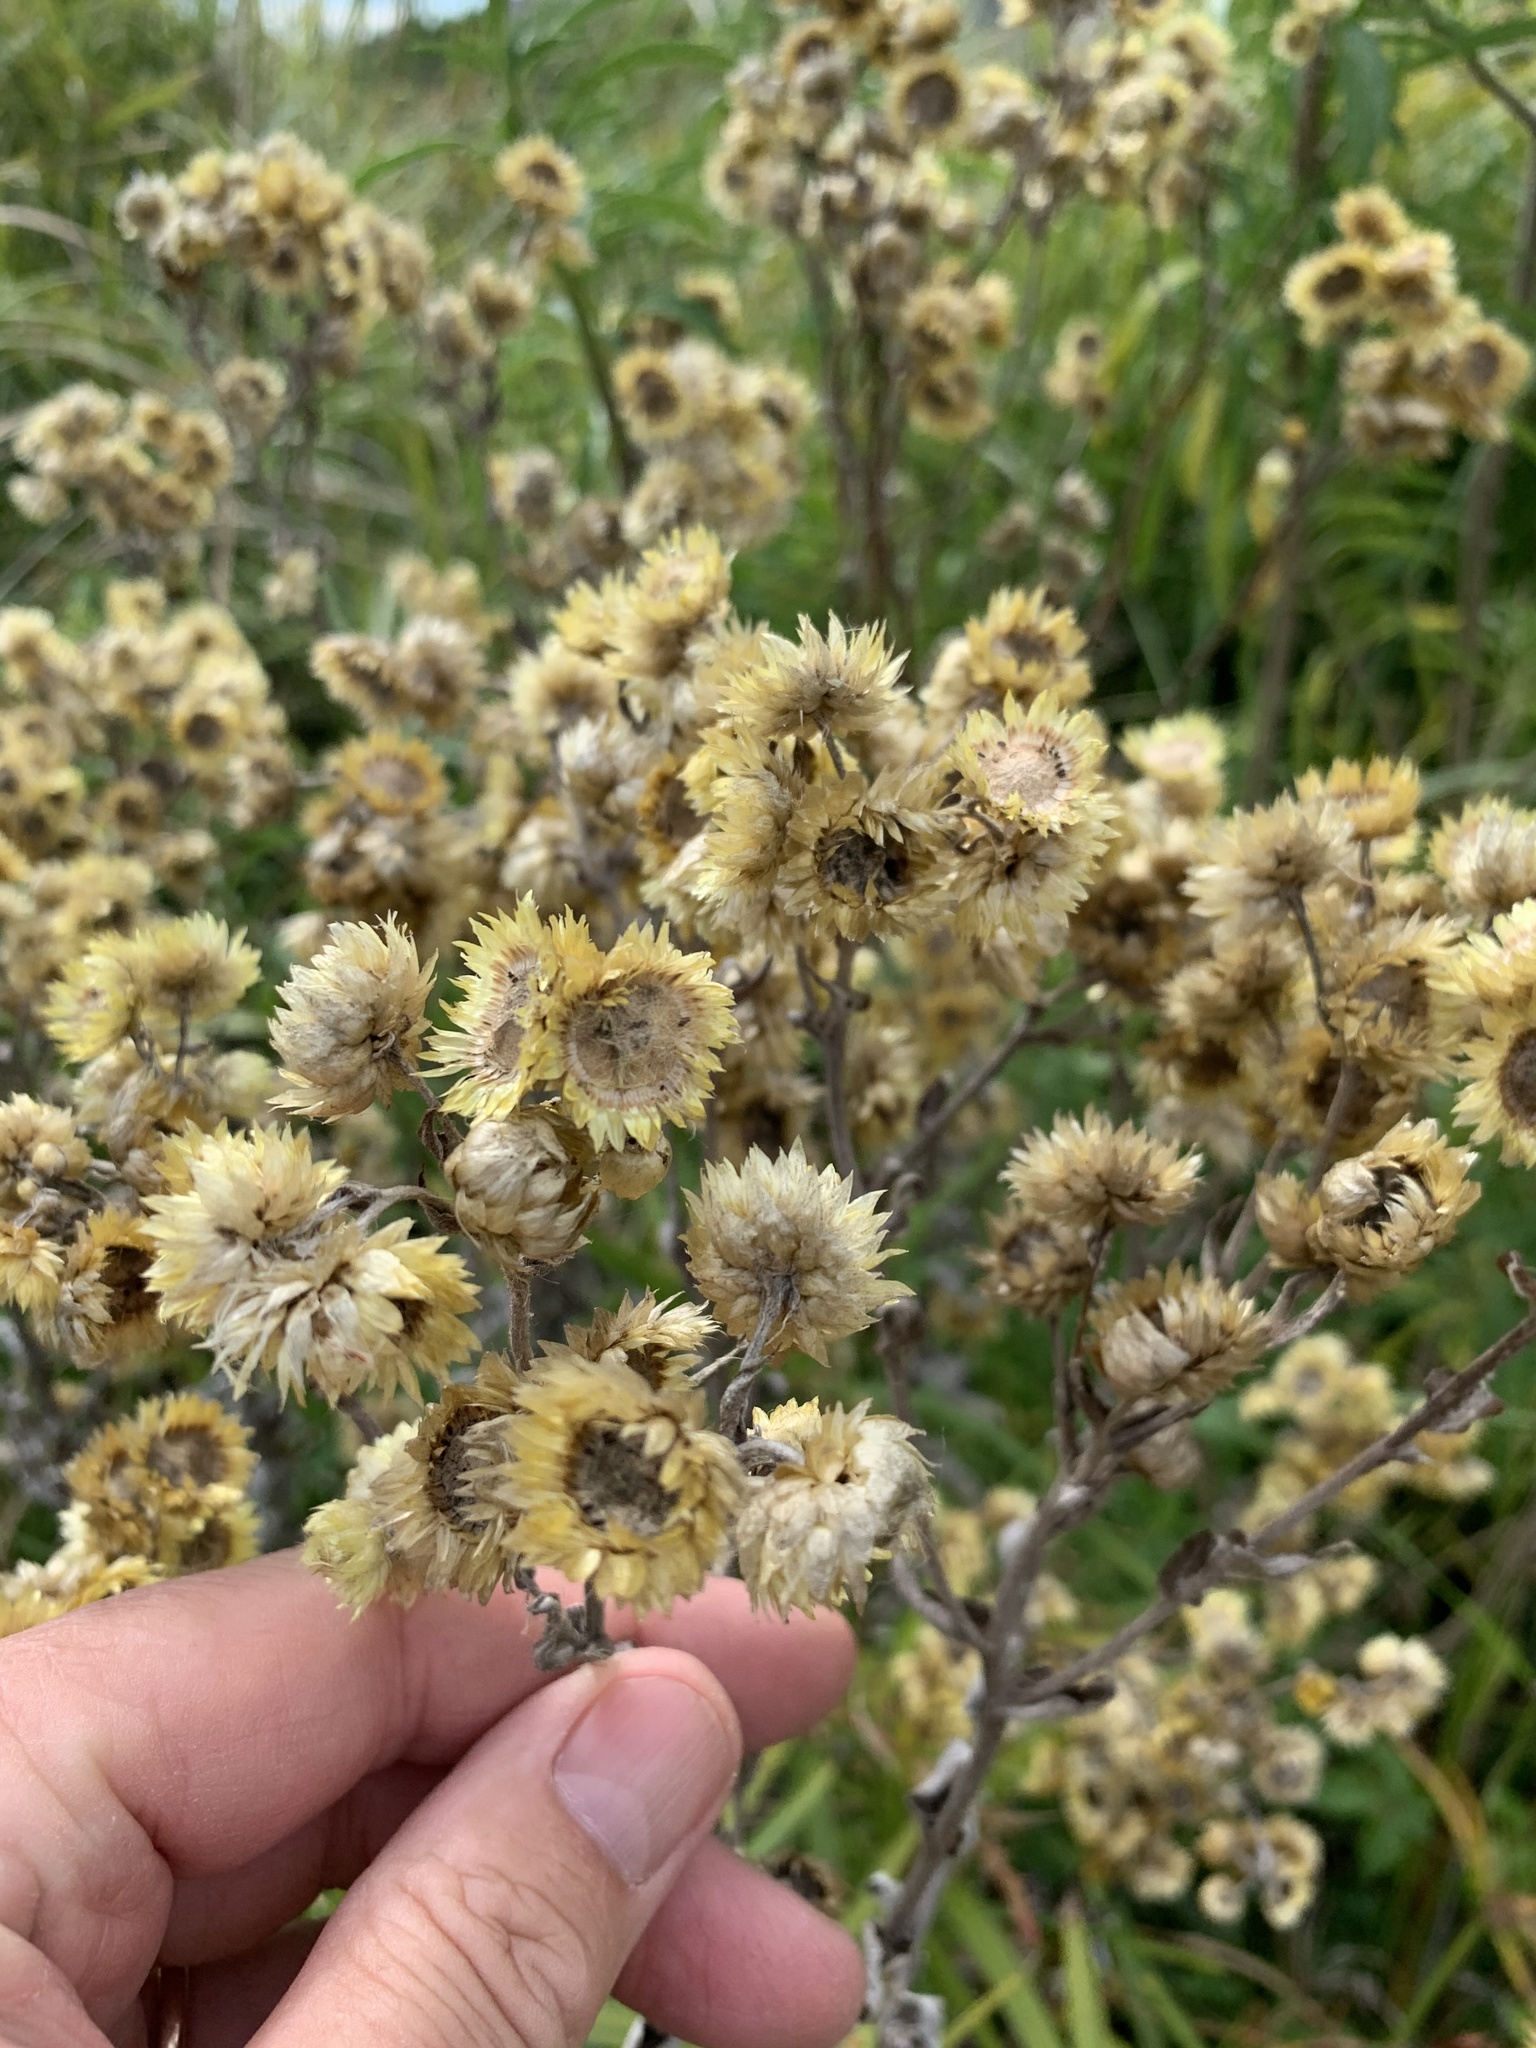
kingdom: Plantae
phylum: Tracheophyta
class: Magnoliopsida
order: Asterales
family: Asteraceae
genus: Helichrysum
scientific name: Helichrysum foetidum
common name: Stinking everlasting
